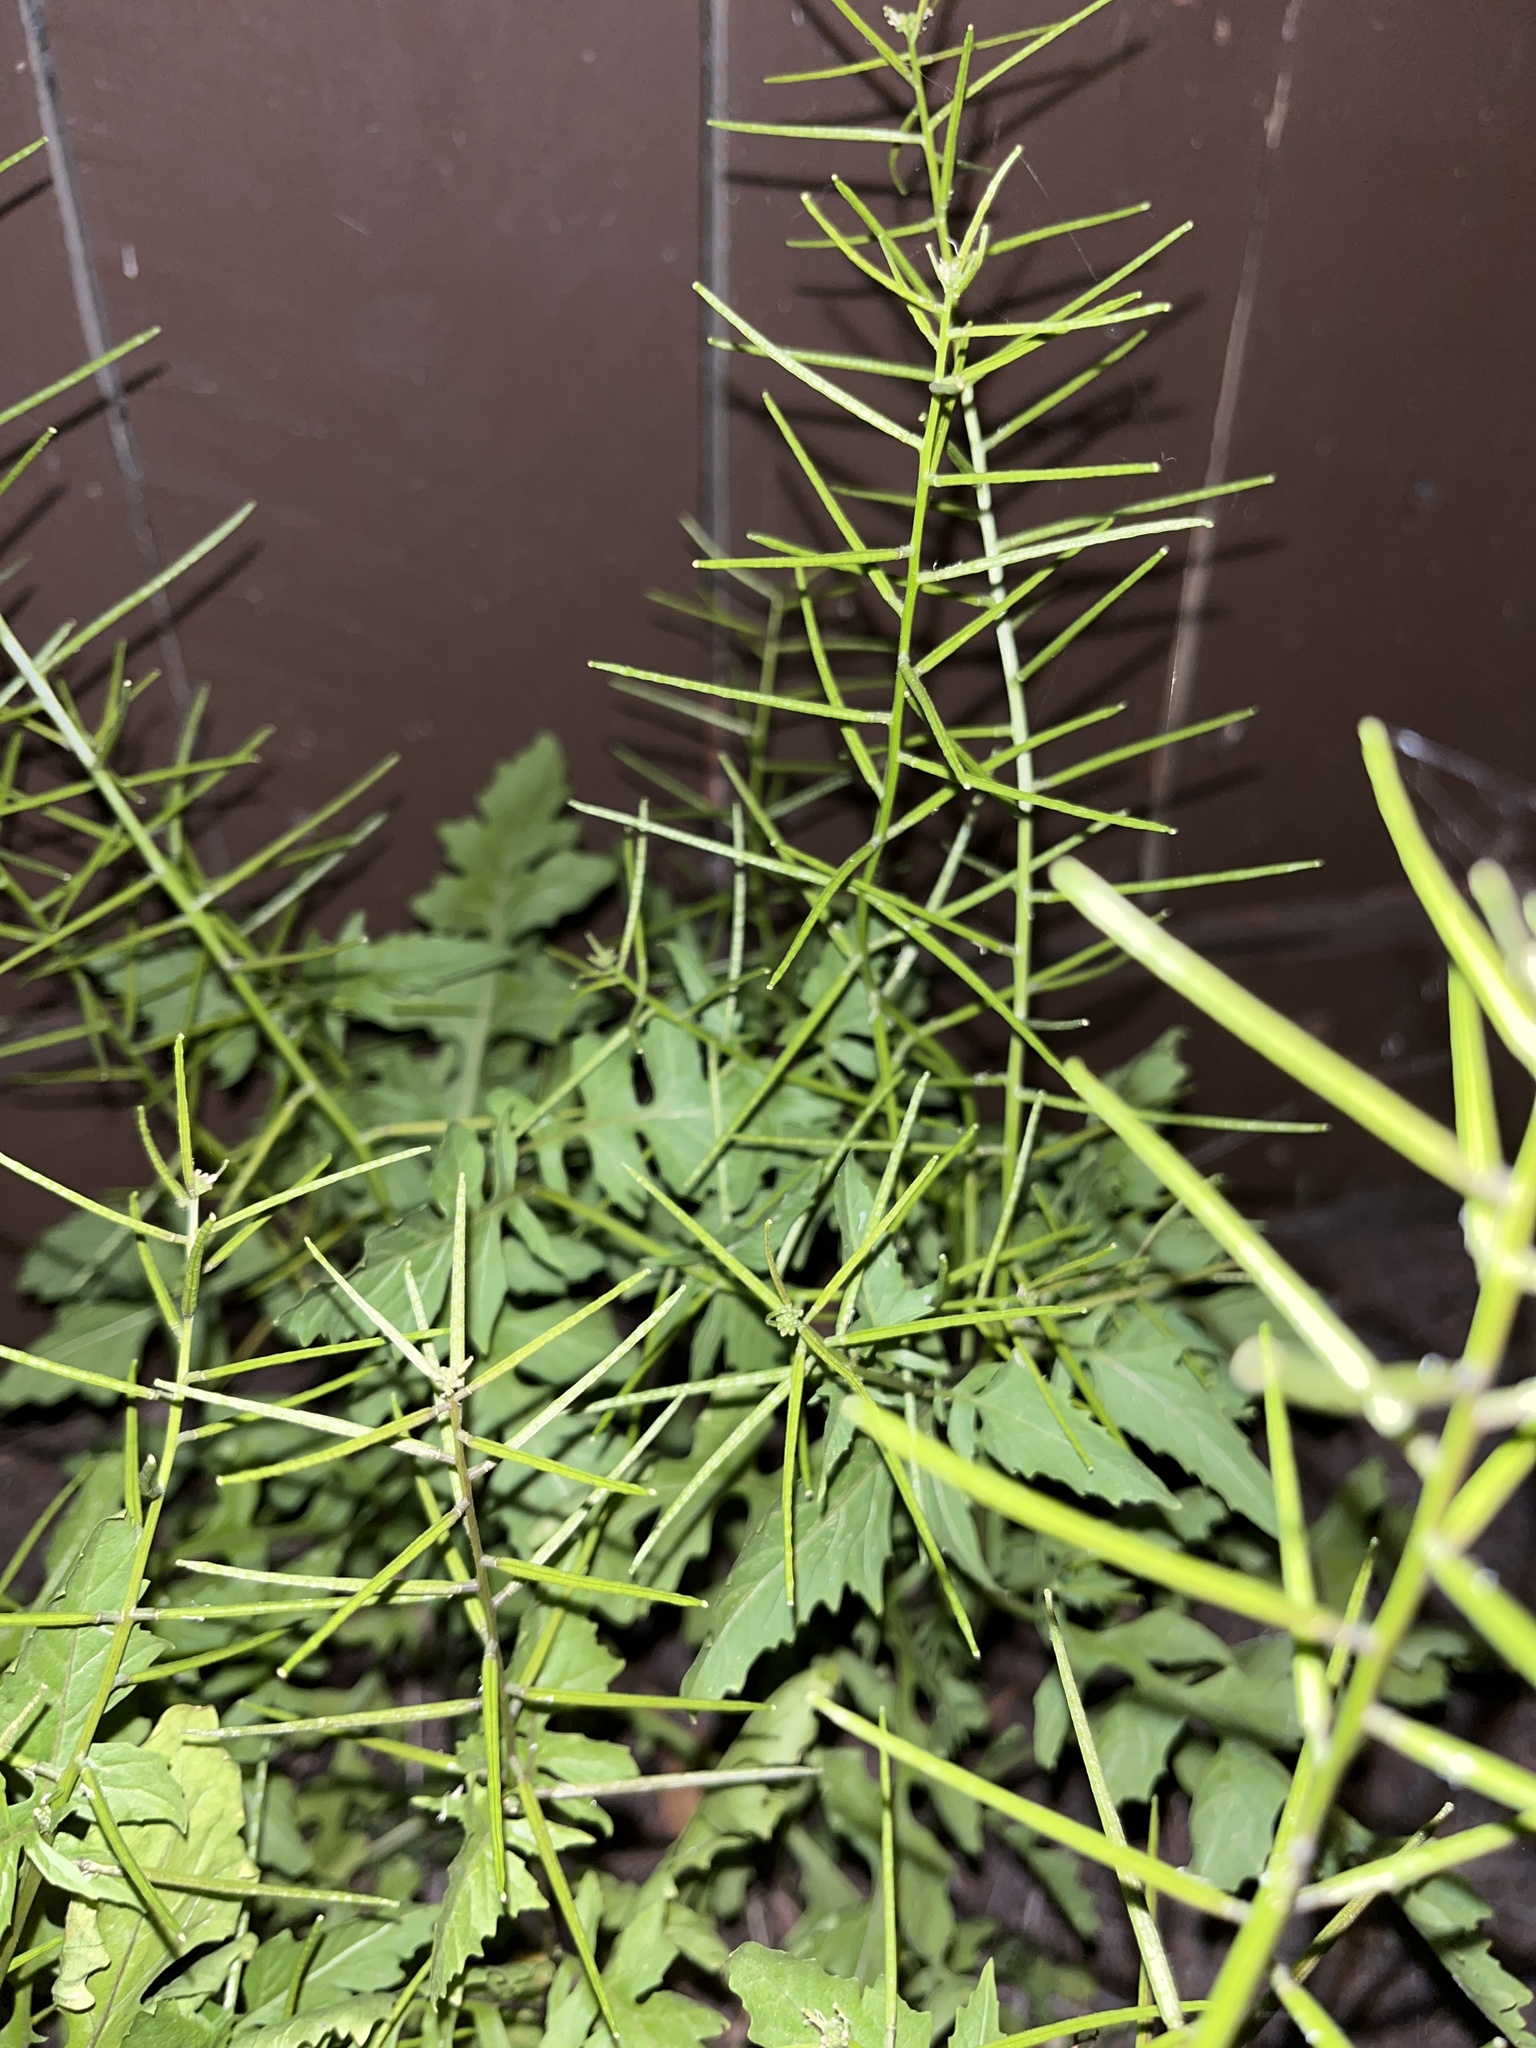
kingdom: Plantae
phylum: Tracheophyta
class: Magnoliopsida
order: Brassicales
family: Brassicaceae
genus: Sisymbrium
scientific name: Sisymbrium erysimoides
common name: French rocket
